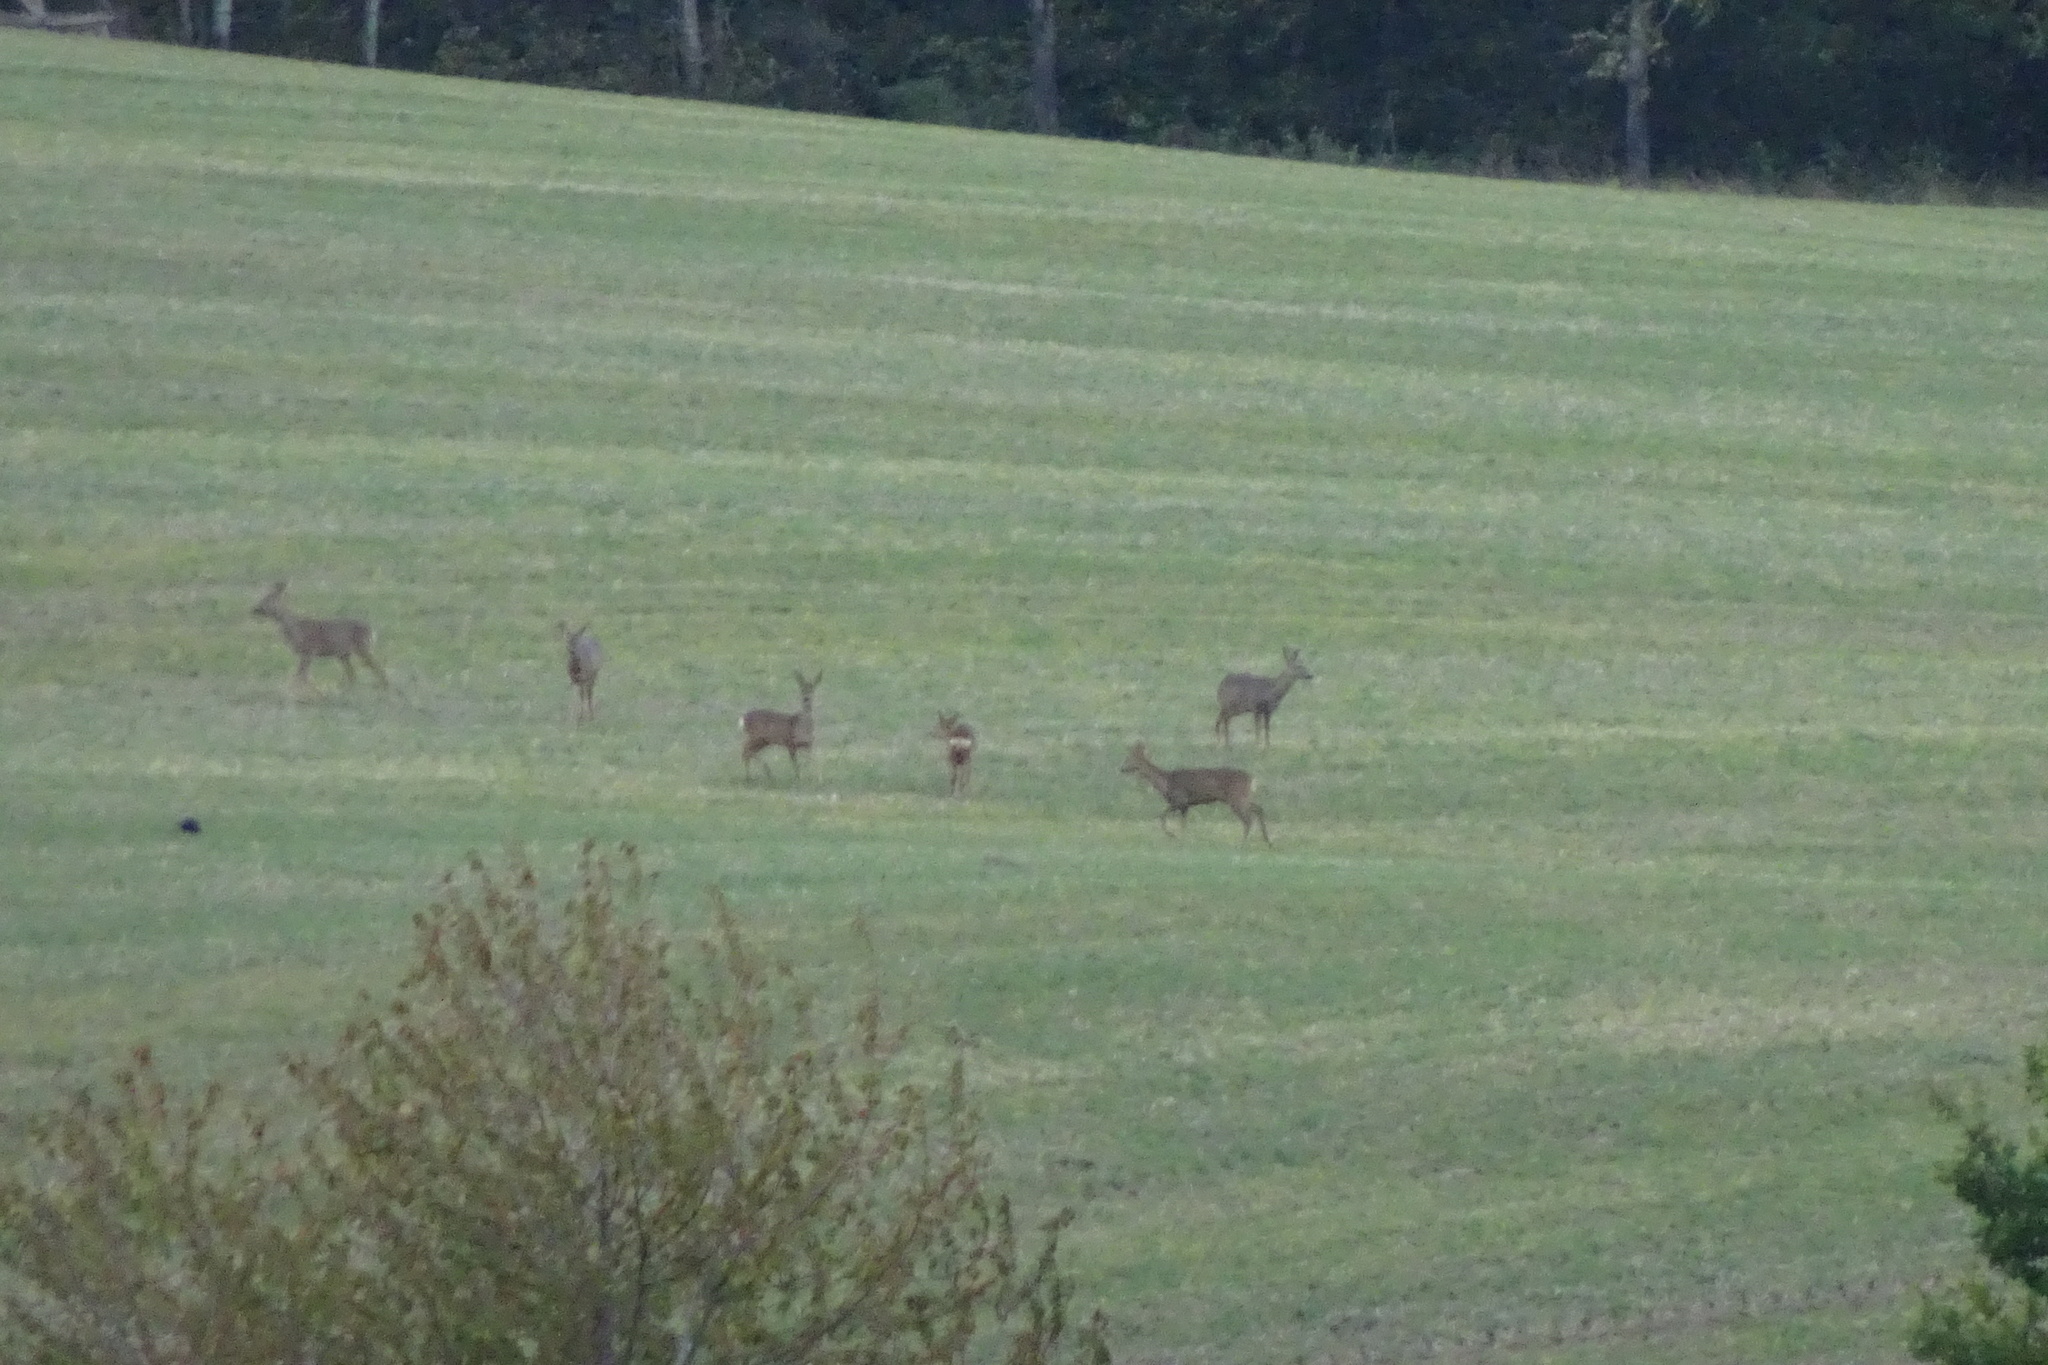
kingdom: Animalia
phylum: Chordata
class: Mammalia
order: Artiodactyla
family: Cervidae
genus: Capreolus
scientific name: Capreolus capreolus
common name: Western roe deer
